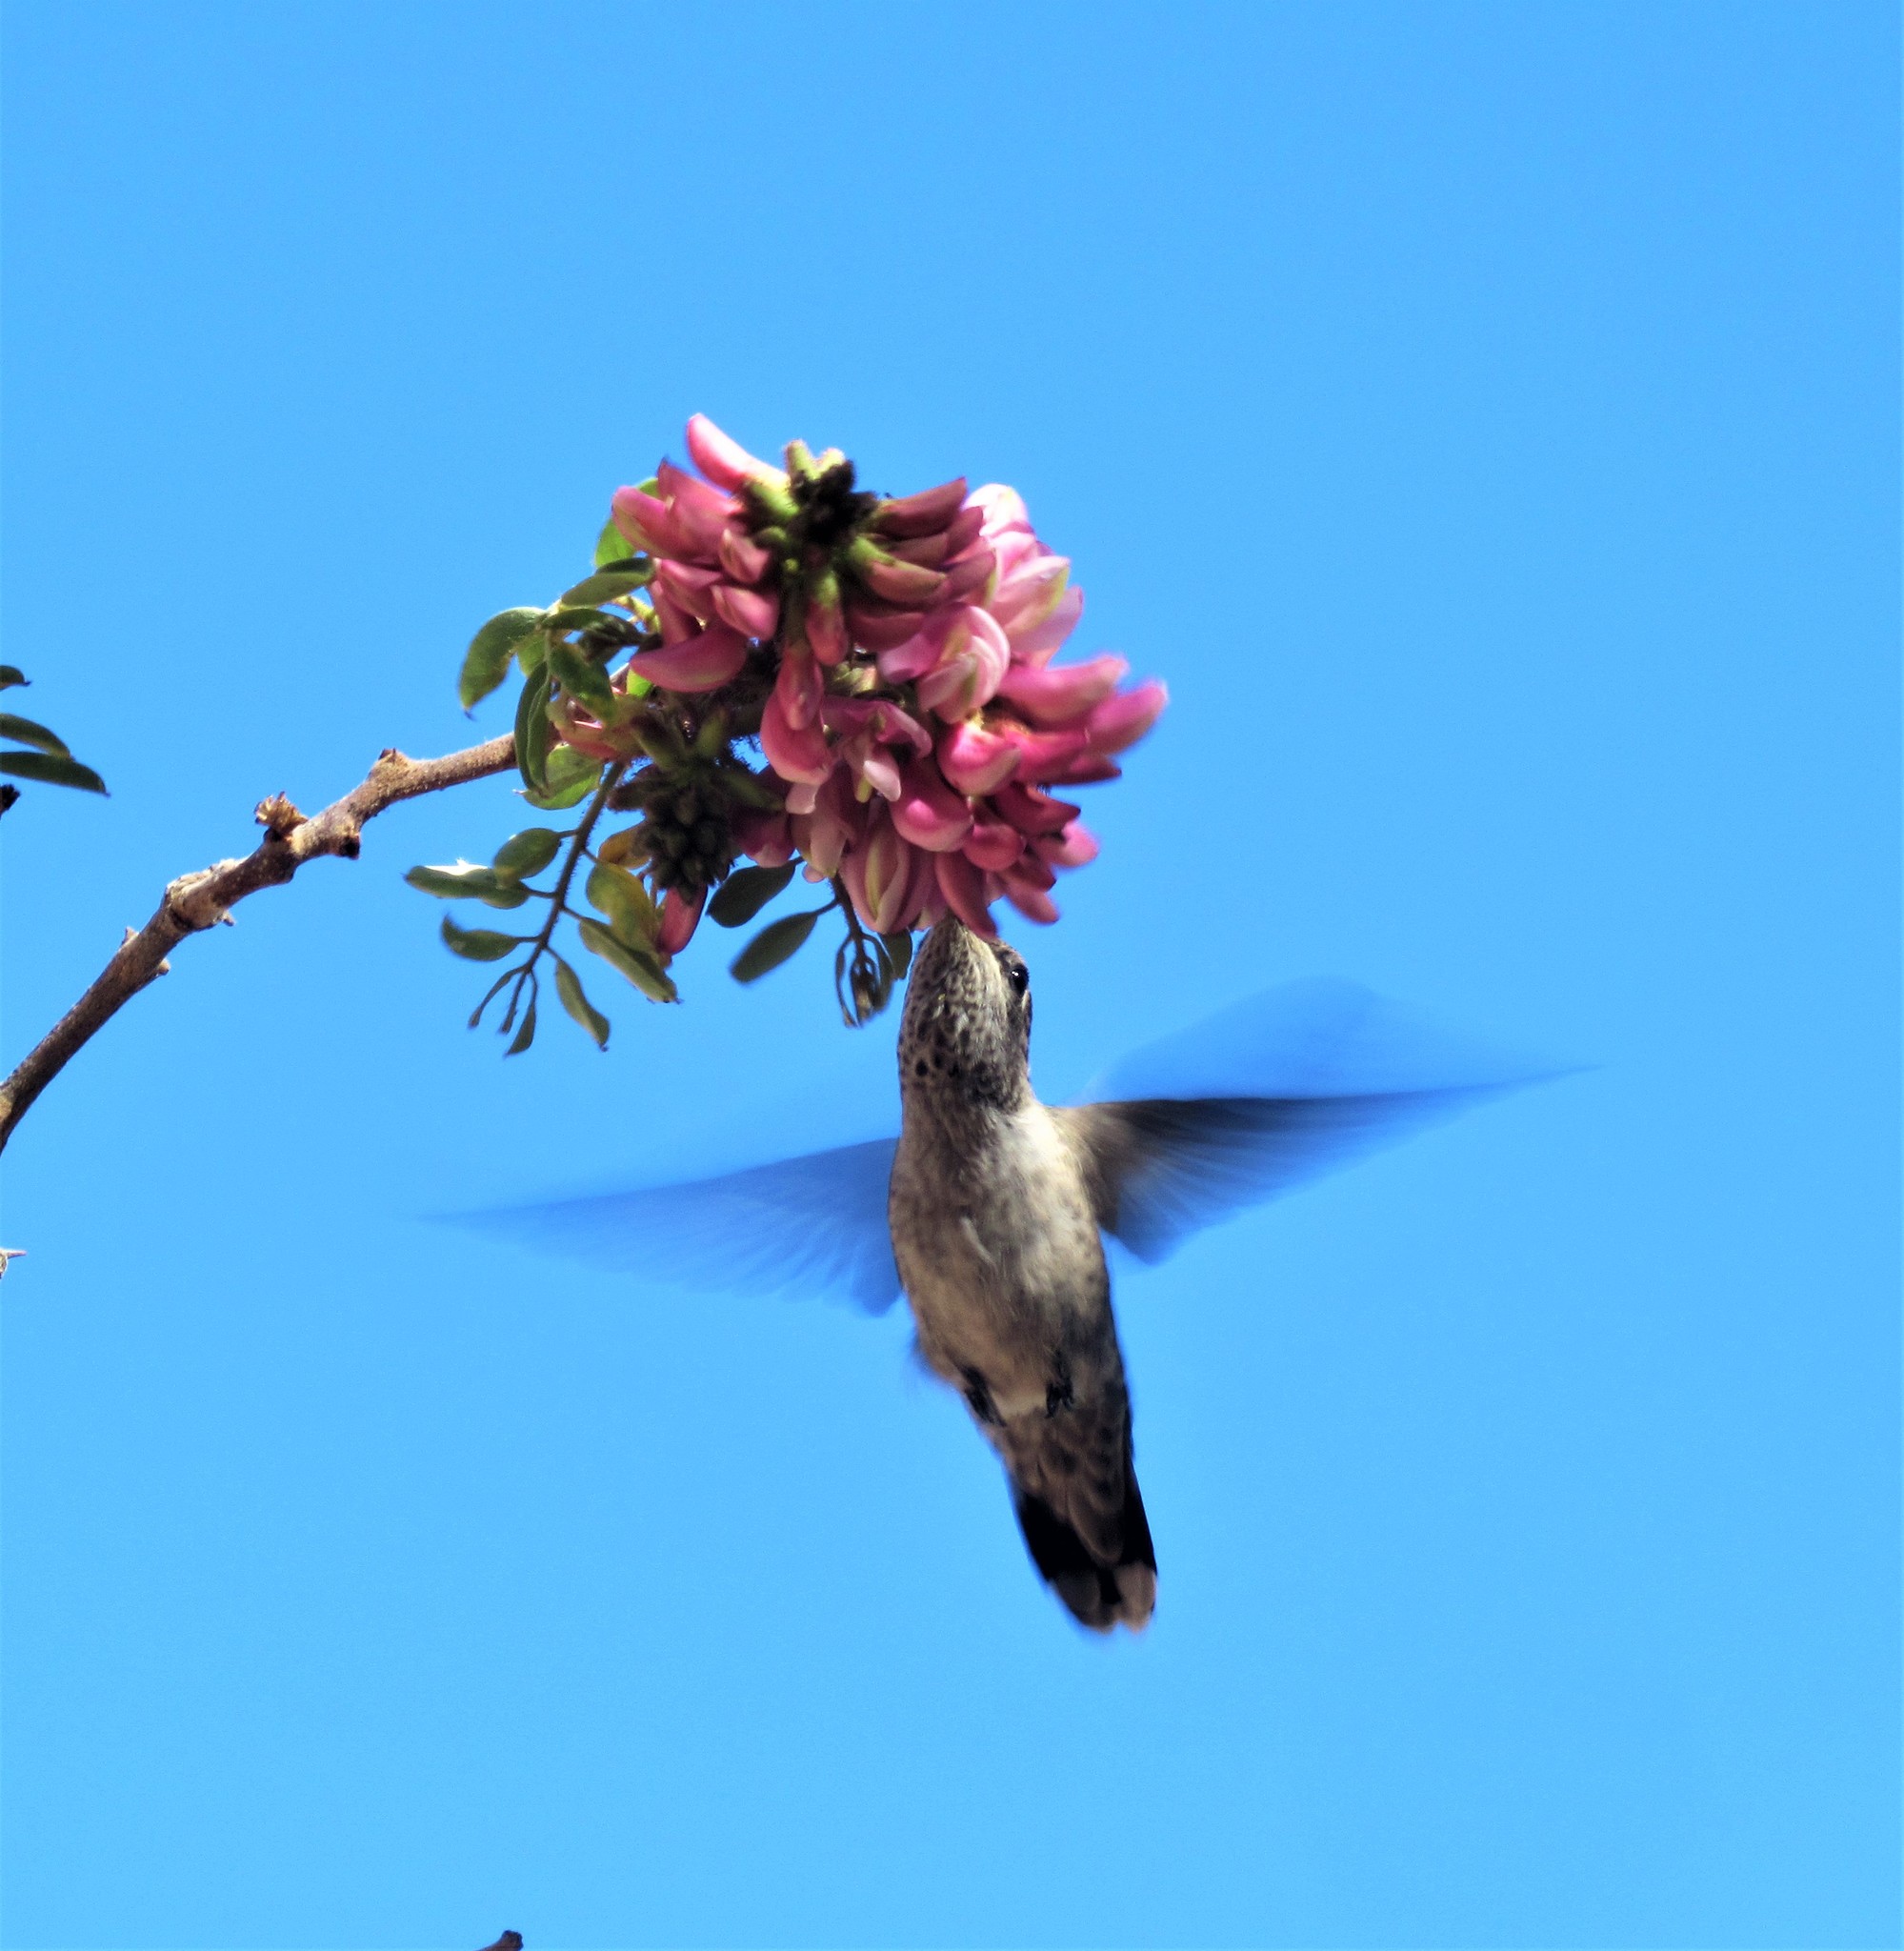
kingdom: Animalia
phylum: Chordata
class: Aves
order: Apodiformes
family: Trochilidae
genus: Calypte
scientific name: Calypte anna
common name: Anna's hummingbird
